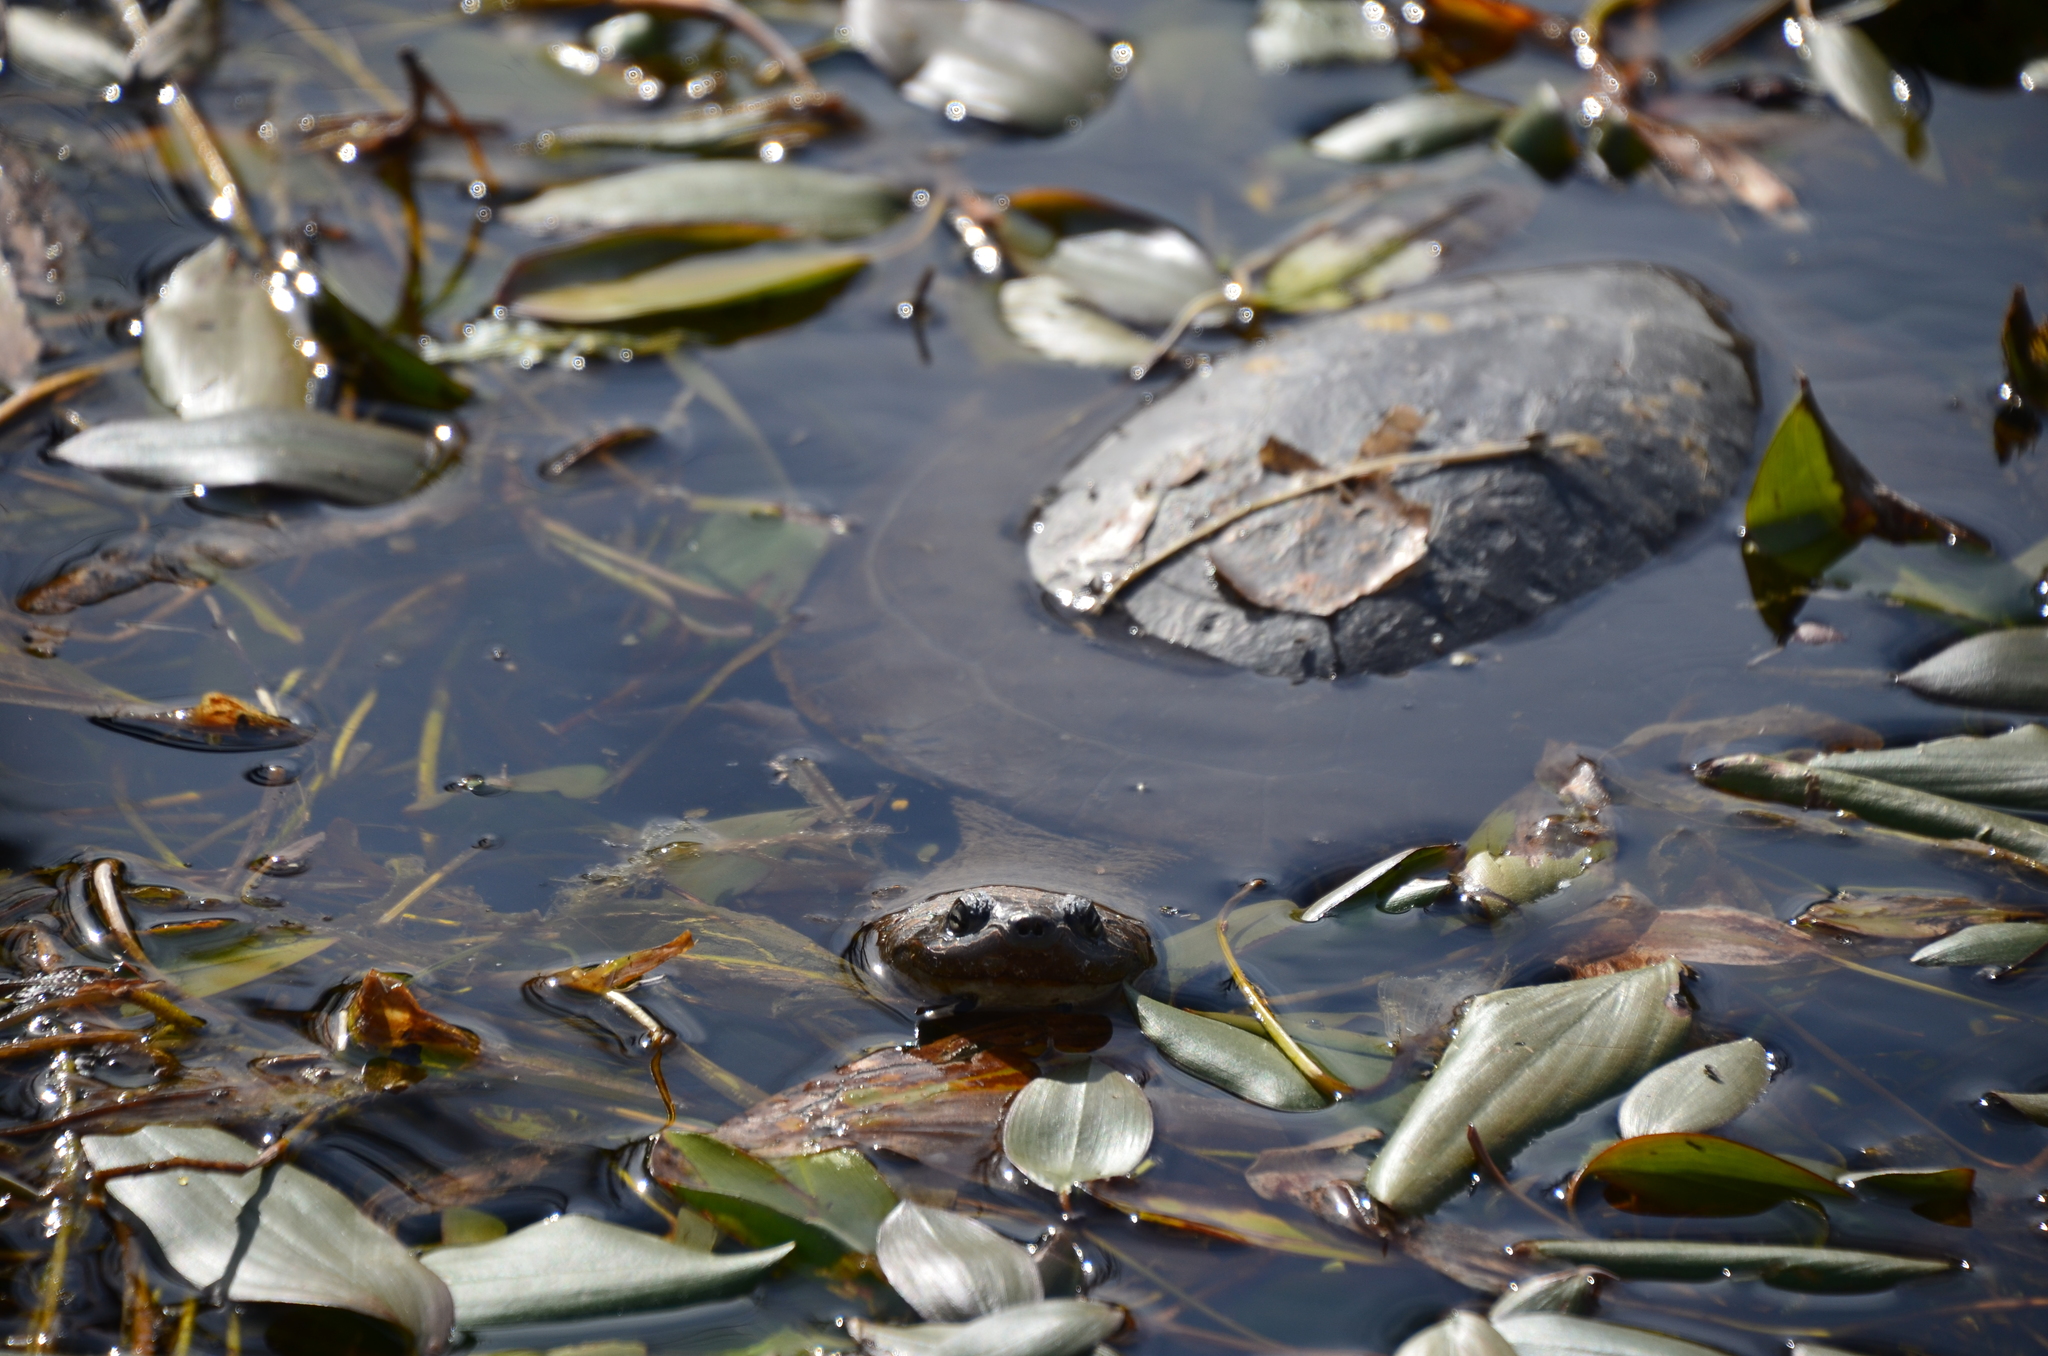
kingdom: Animalia
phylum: Chordata
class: Testudines
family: Chelidae
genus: Phrynops
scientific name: Phrynops hilarii
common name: Side-necked turtle of saint hillaire
